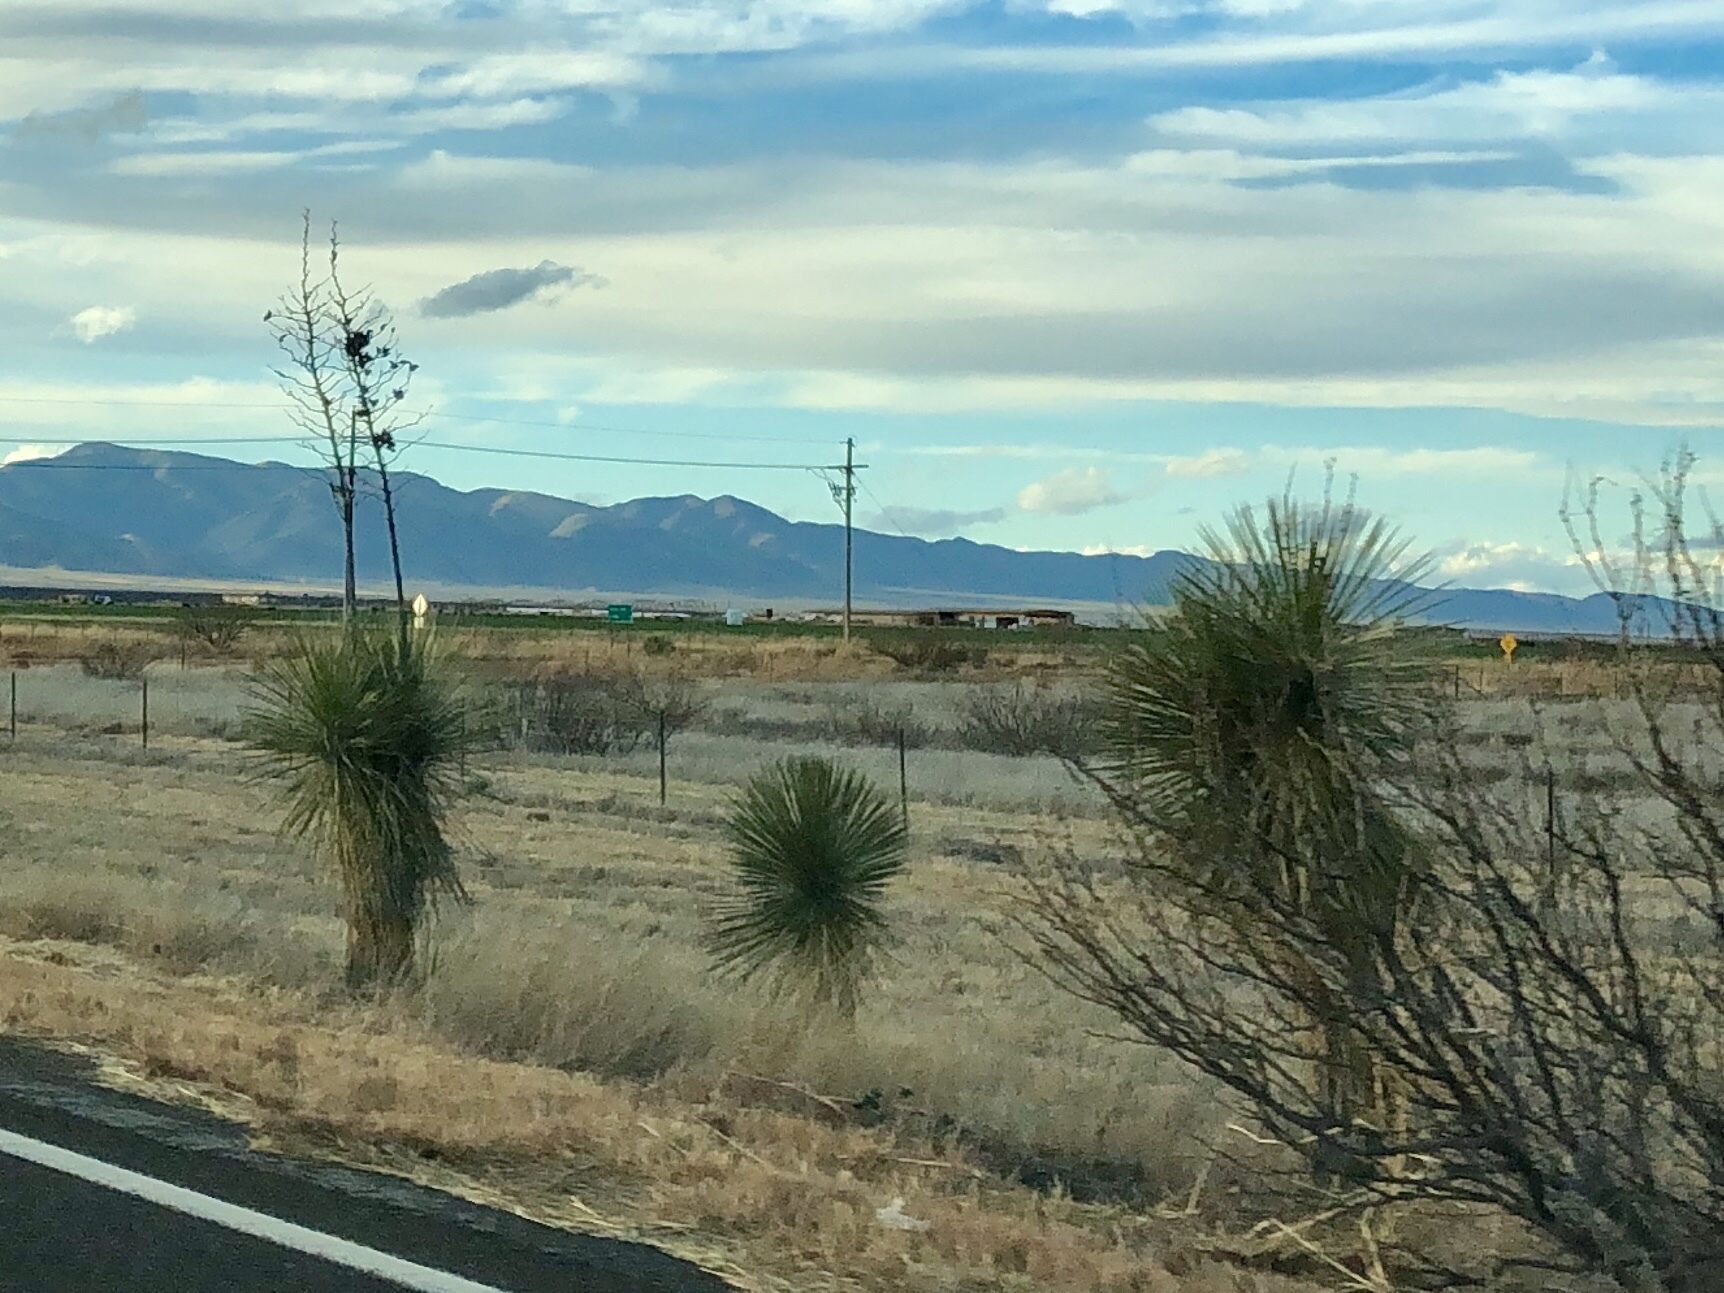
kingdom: Plantae
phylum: Tracheophyta
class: Liliopsida
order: Asparagales
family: Asparagaceae
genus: Yucca
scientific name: Yucca elata
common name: Palmella
